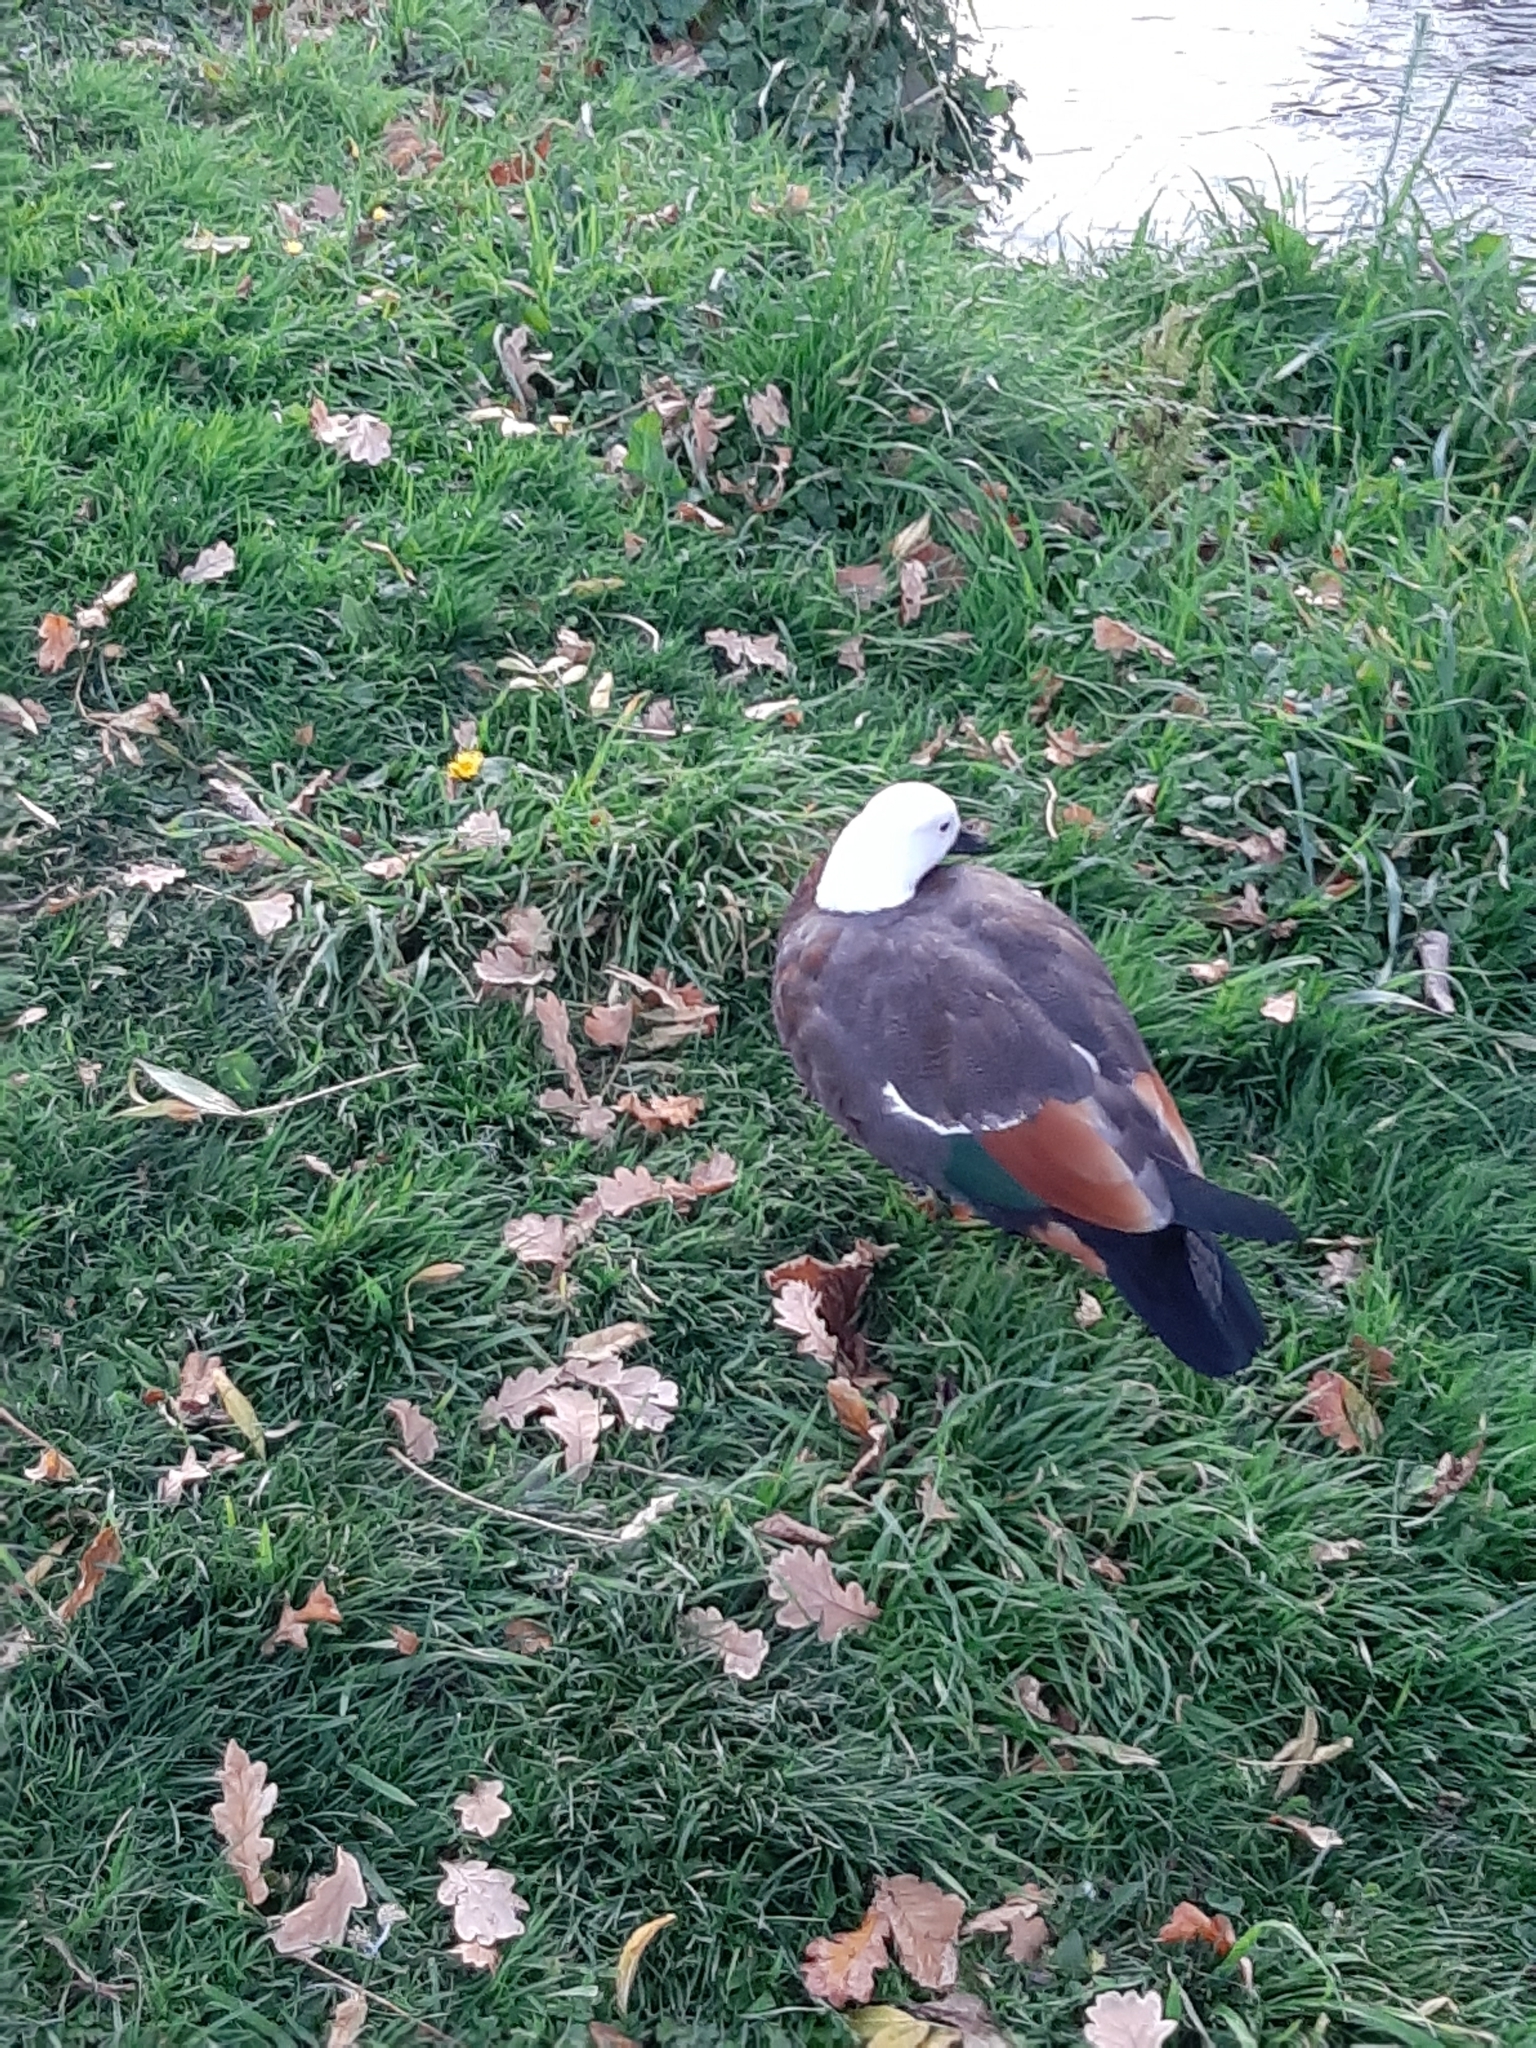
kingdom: Animalia
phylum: Chordata
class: Aves
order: Anseriformes
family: Anatidae
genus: Tadorna
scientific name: Tadorna variegata
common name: Paradise shelduck
